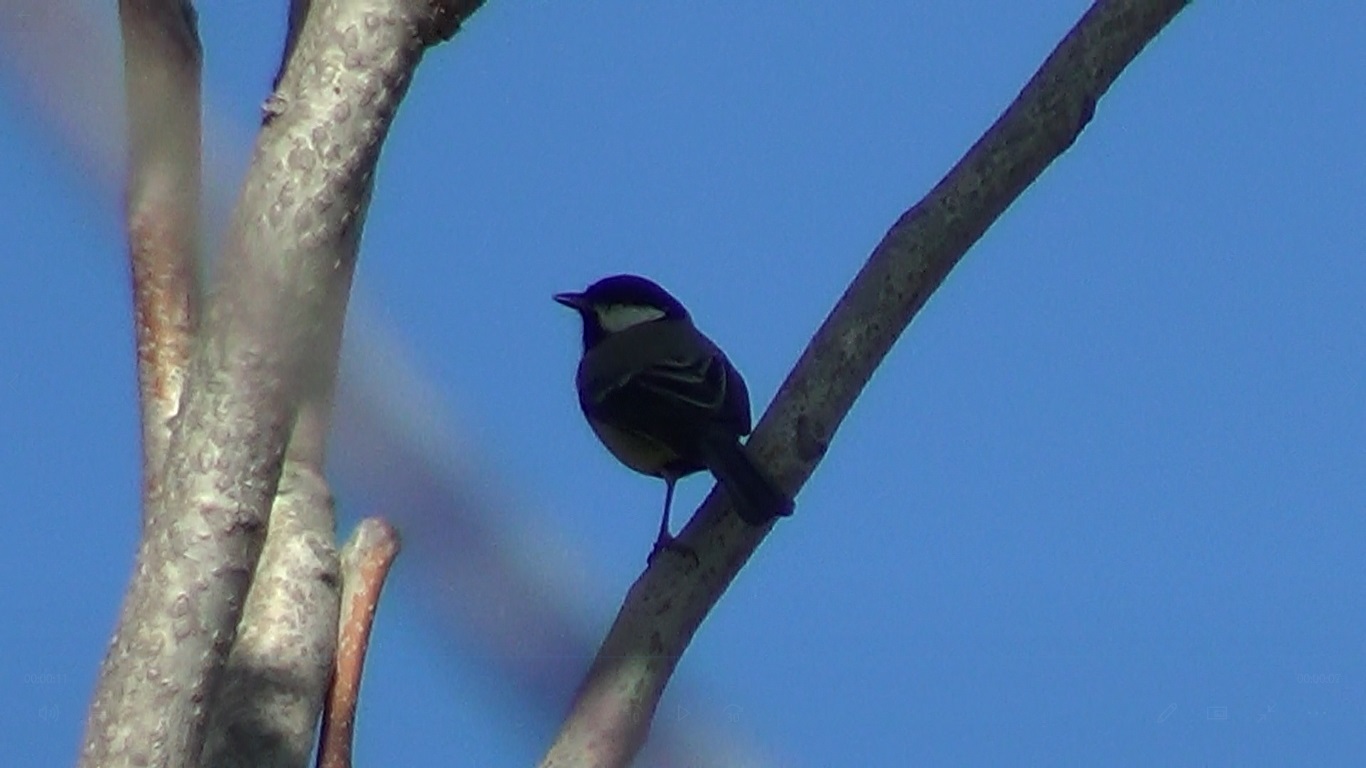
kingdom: Animalia
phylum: Chordata
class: Aves
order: Passeriformes
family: Paridae
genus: Parus
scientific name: Parus major
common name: Great tit
